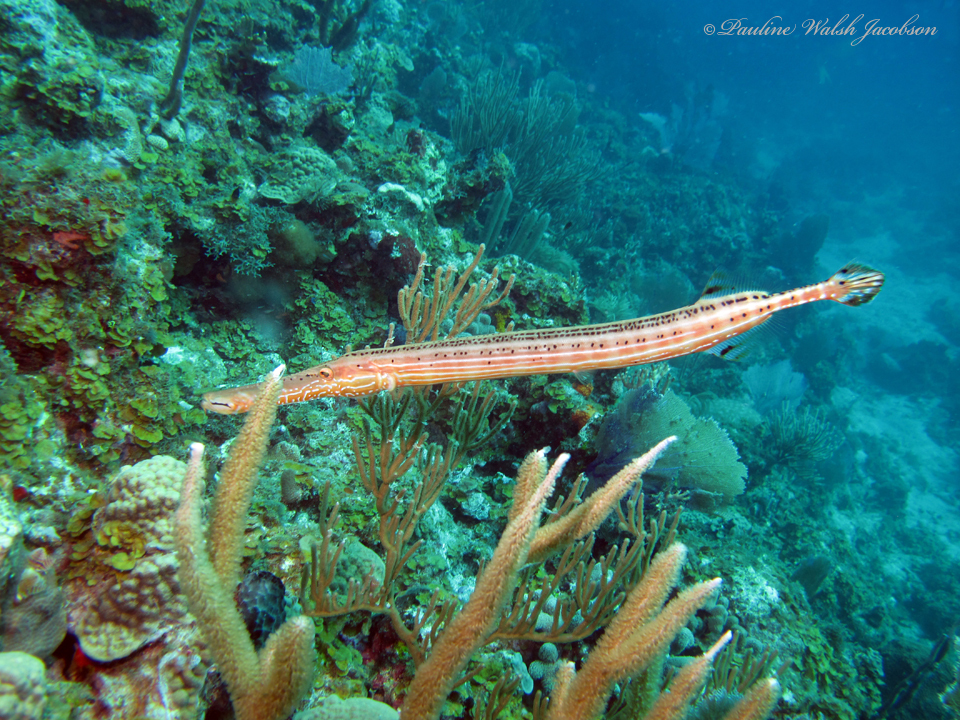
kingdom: Animalia
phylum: Chordata
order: Syngnathiformes
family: Aulostomidae
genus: Aulostomus
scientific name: Aulostomus maculatus
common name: West atlantic trumpetfish
